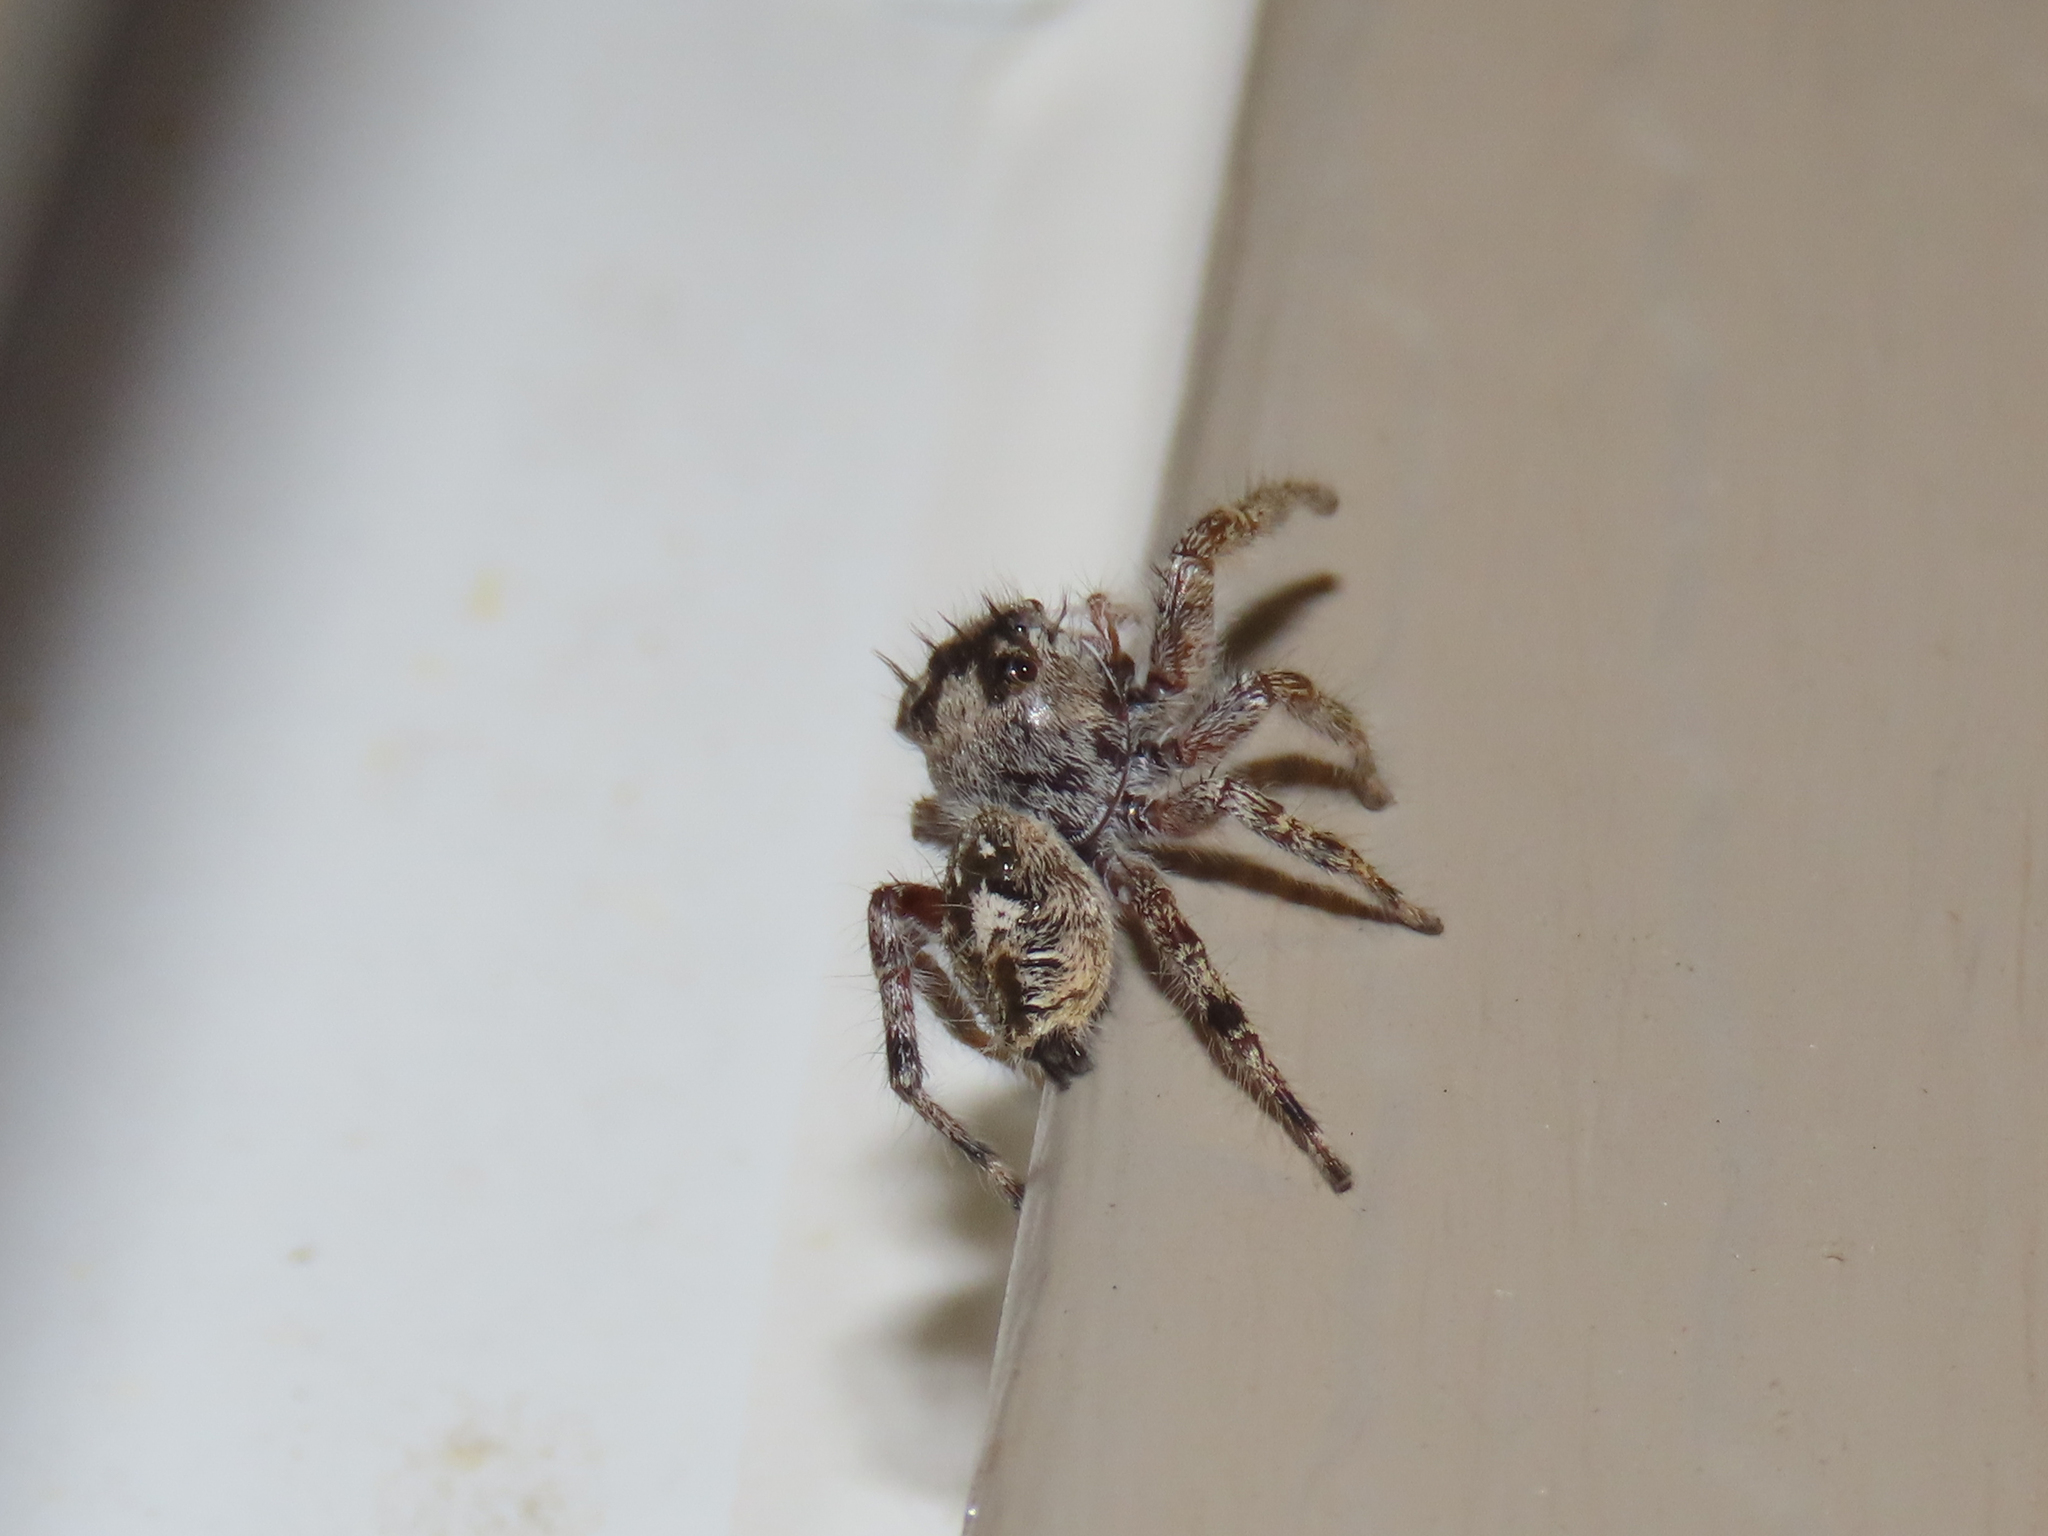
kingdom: Animalia
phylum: Arthropoda
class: Arachnida
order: Araneae
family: Salticidae
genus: Phidippus
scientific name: Phidippus putnami
